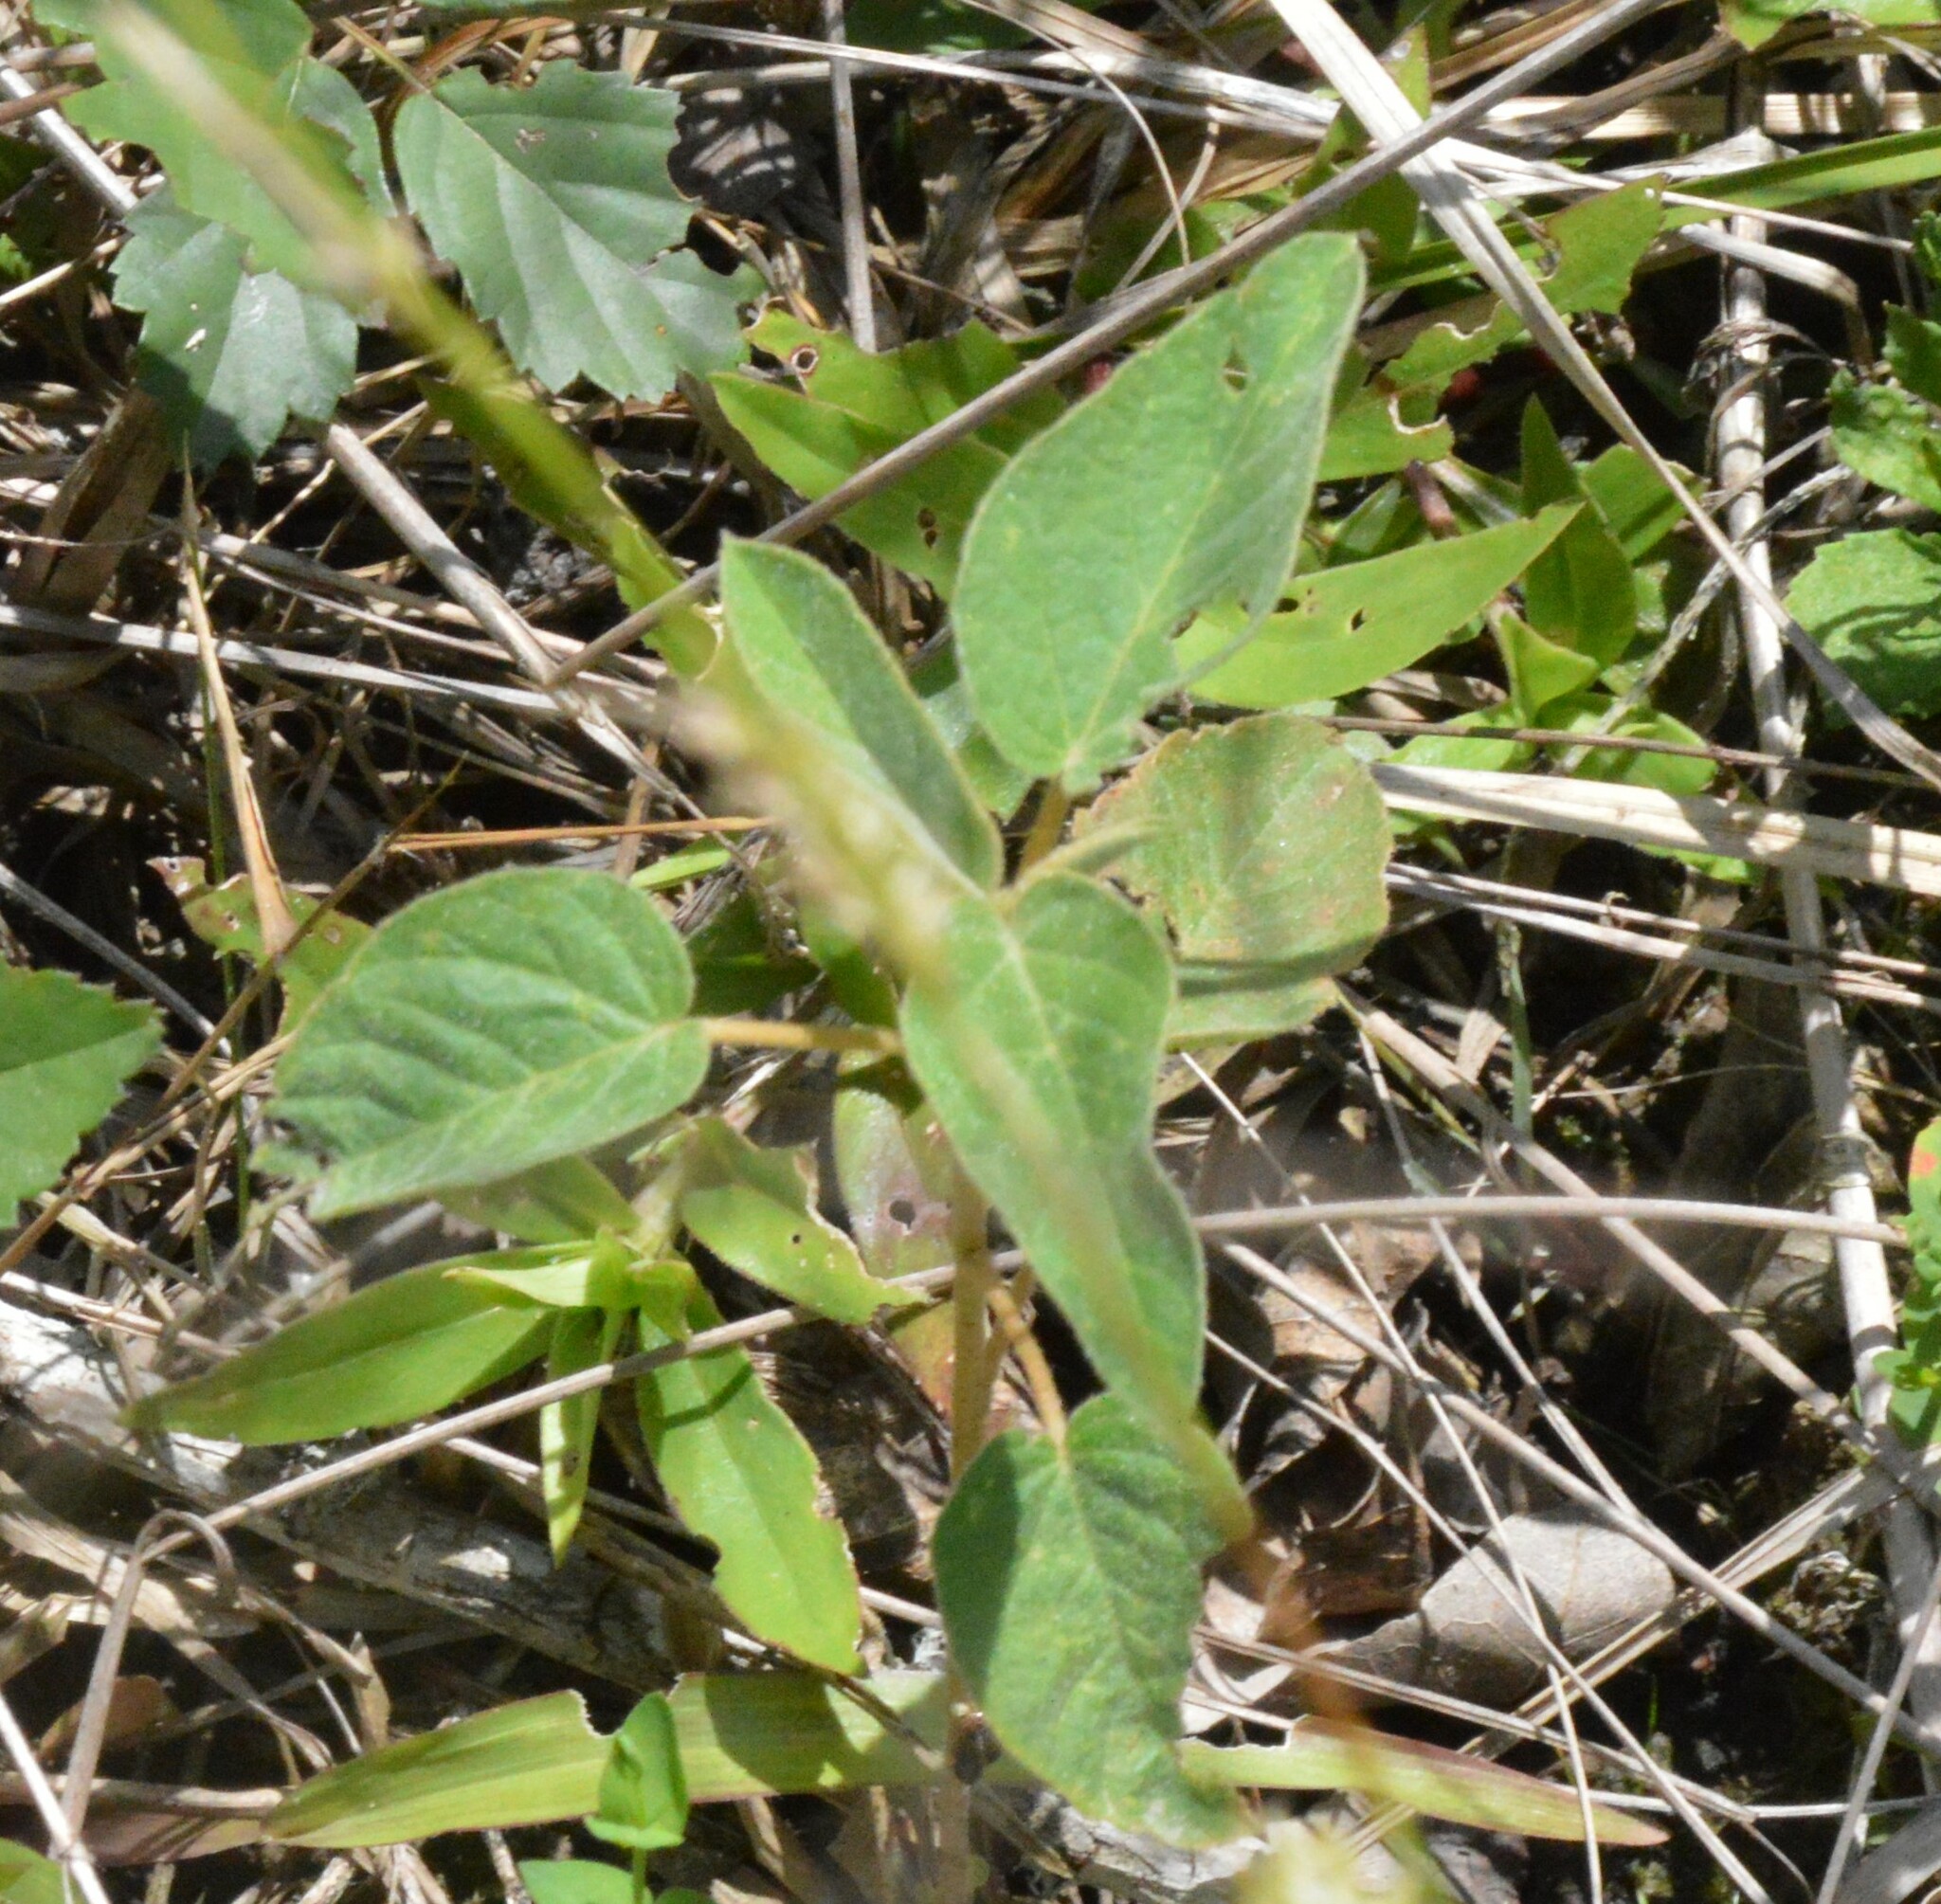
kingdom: Plantae
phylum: Tracheophyta
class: Magnoliopsida
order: Malpighiales
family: Euphorbiaceae
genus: Croton
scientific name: Croton lindheimeri
